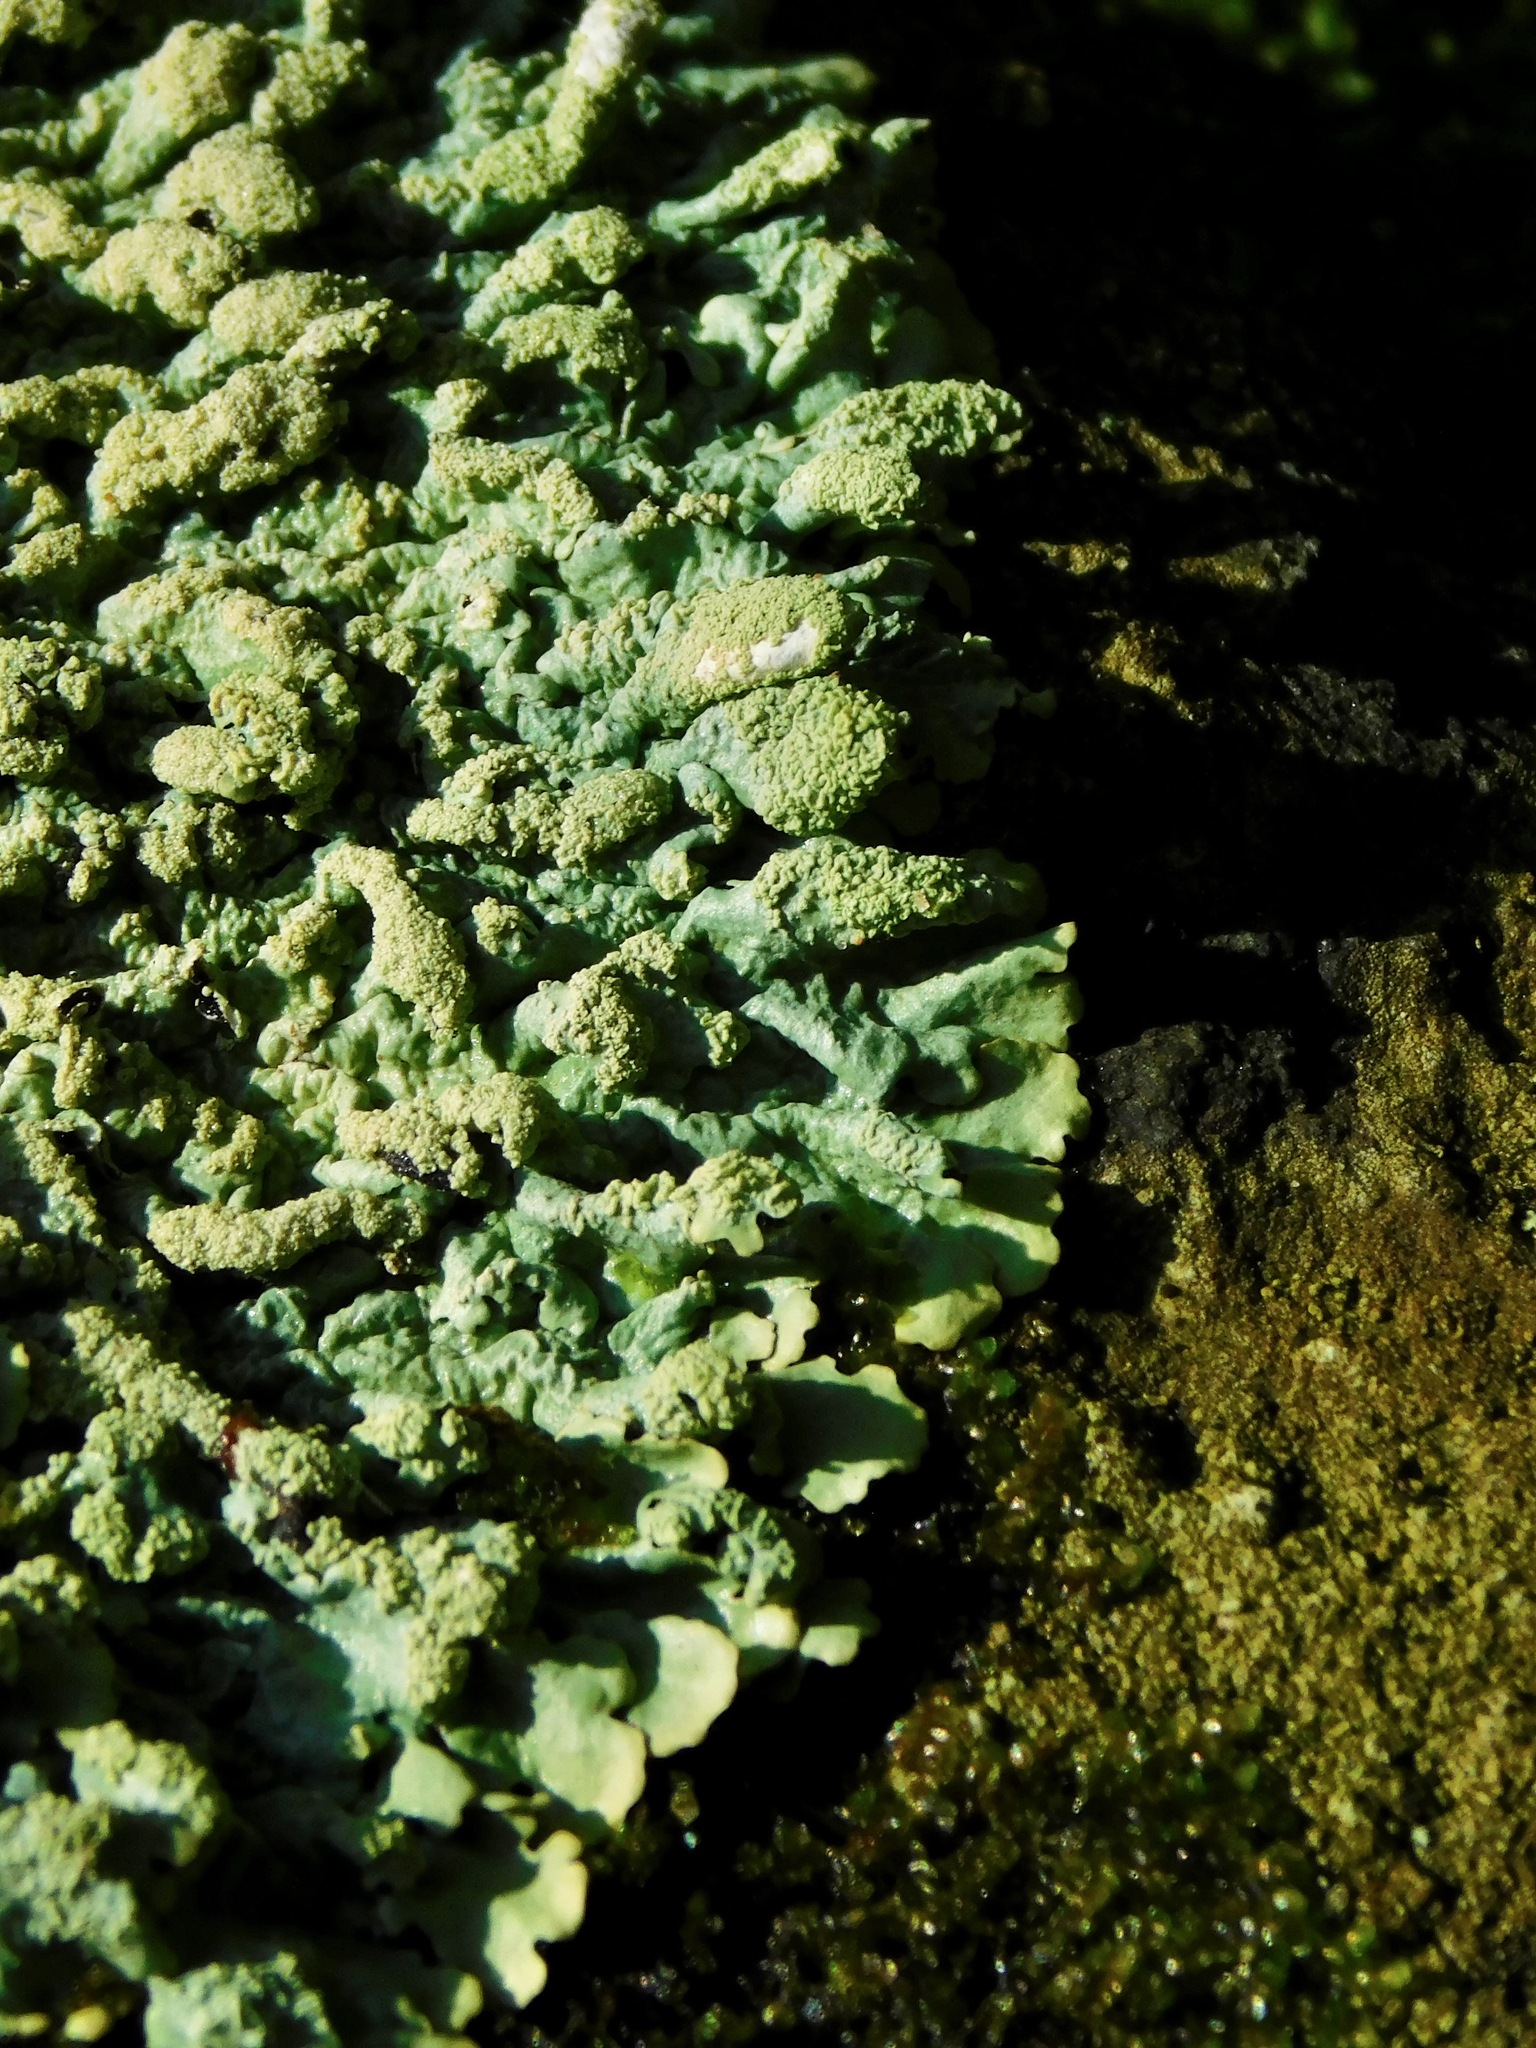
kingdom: Fungi
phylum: Ascomycota
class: Lecanoromycetes
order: Lecanorales
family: Parmeliaceae
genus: Myelochroa
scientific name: Myelochroa aurulenta
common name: Powdery axil-bristle lichen
